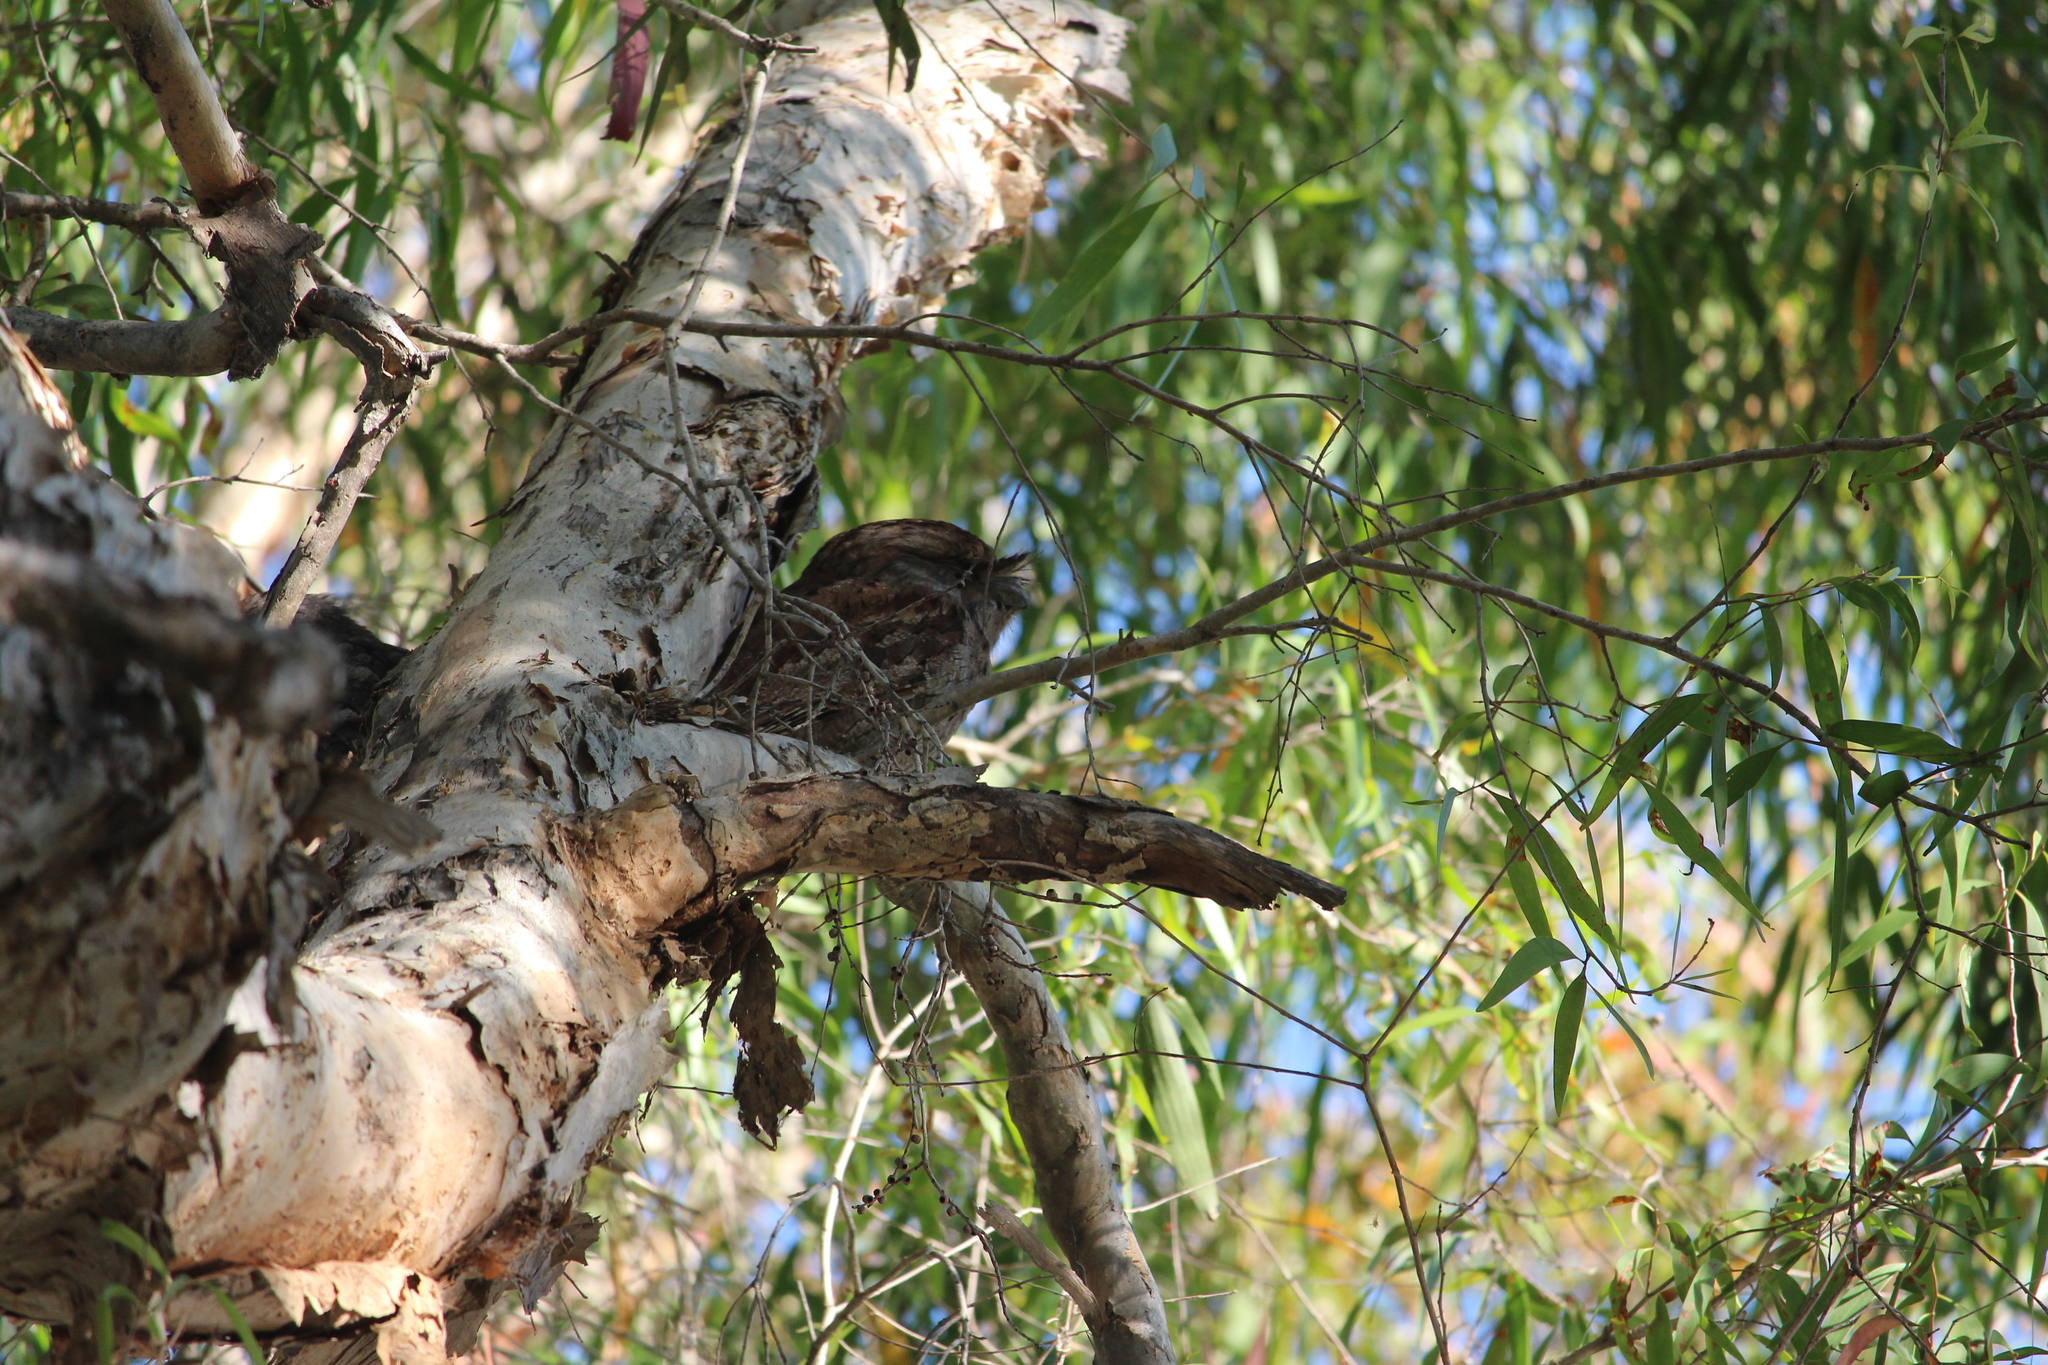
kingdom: Animalia
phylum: Chordata
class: Aves
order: Caprimulgiformes
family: Podargidae
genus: Podargus
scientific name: Podargus strigoides
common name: Tawny frogmouth
